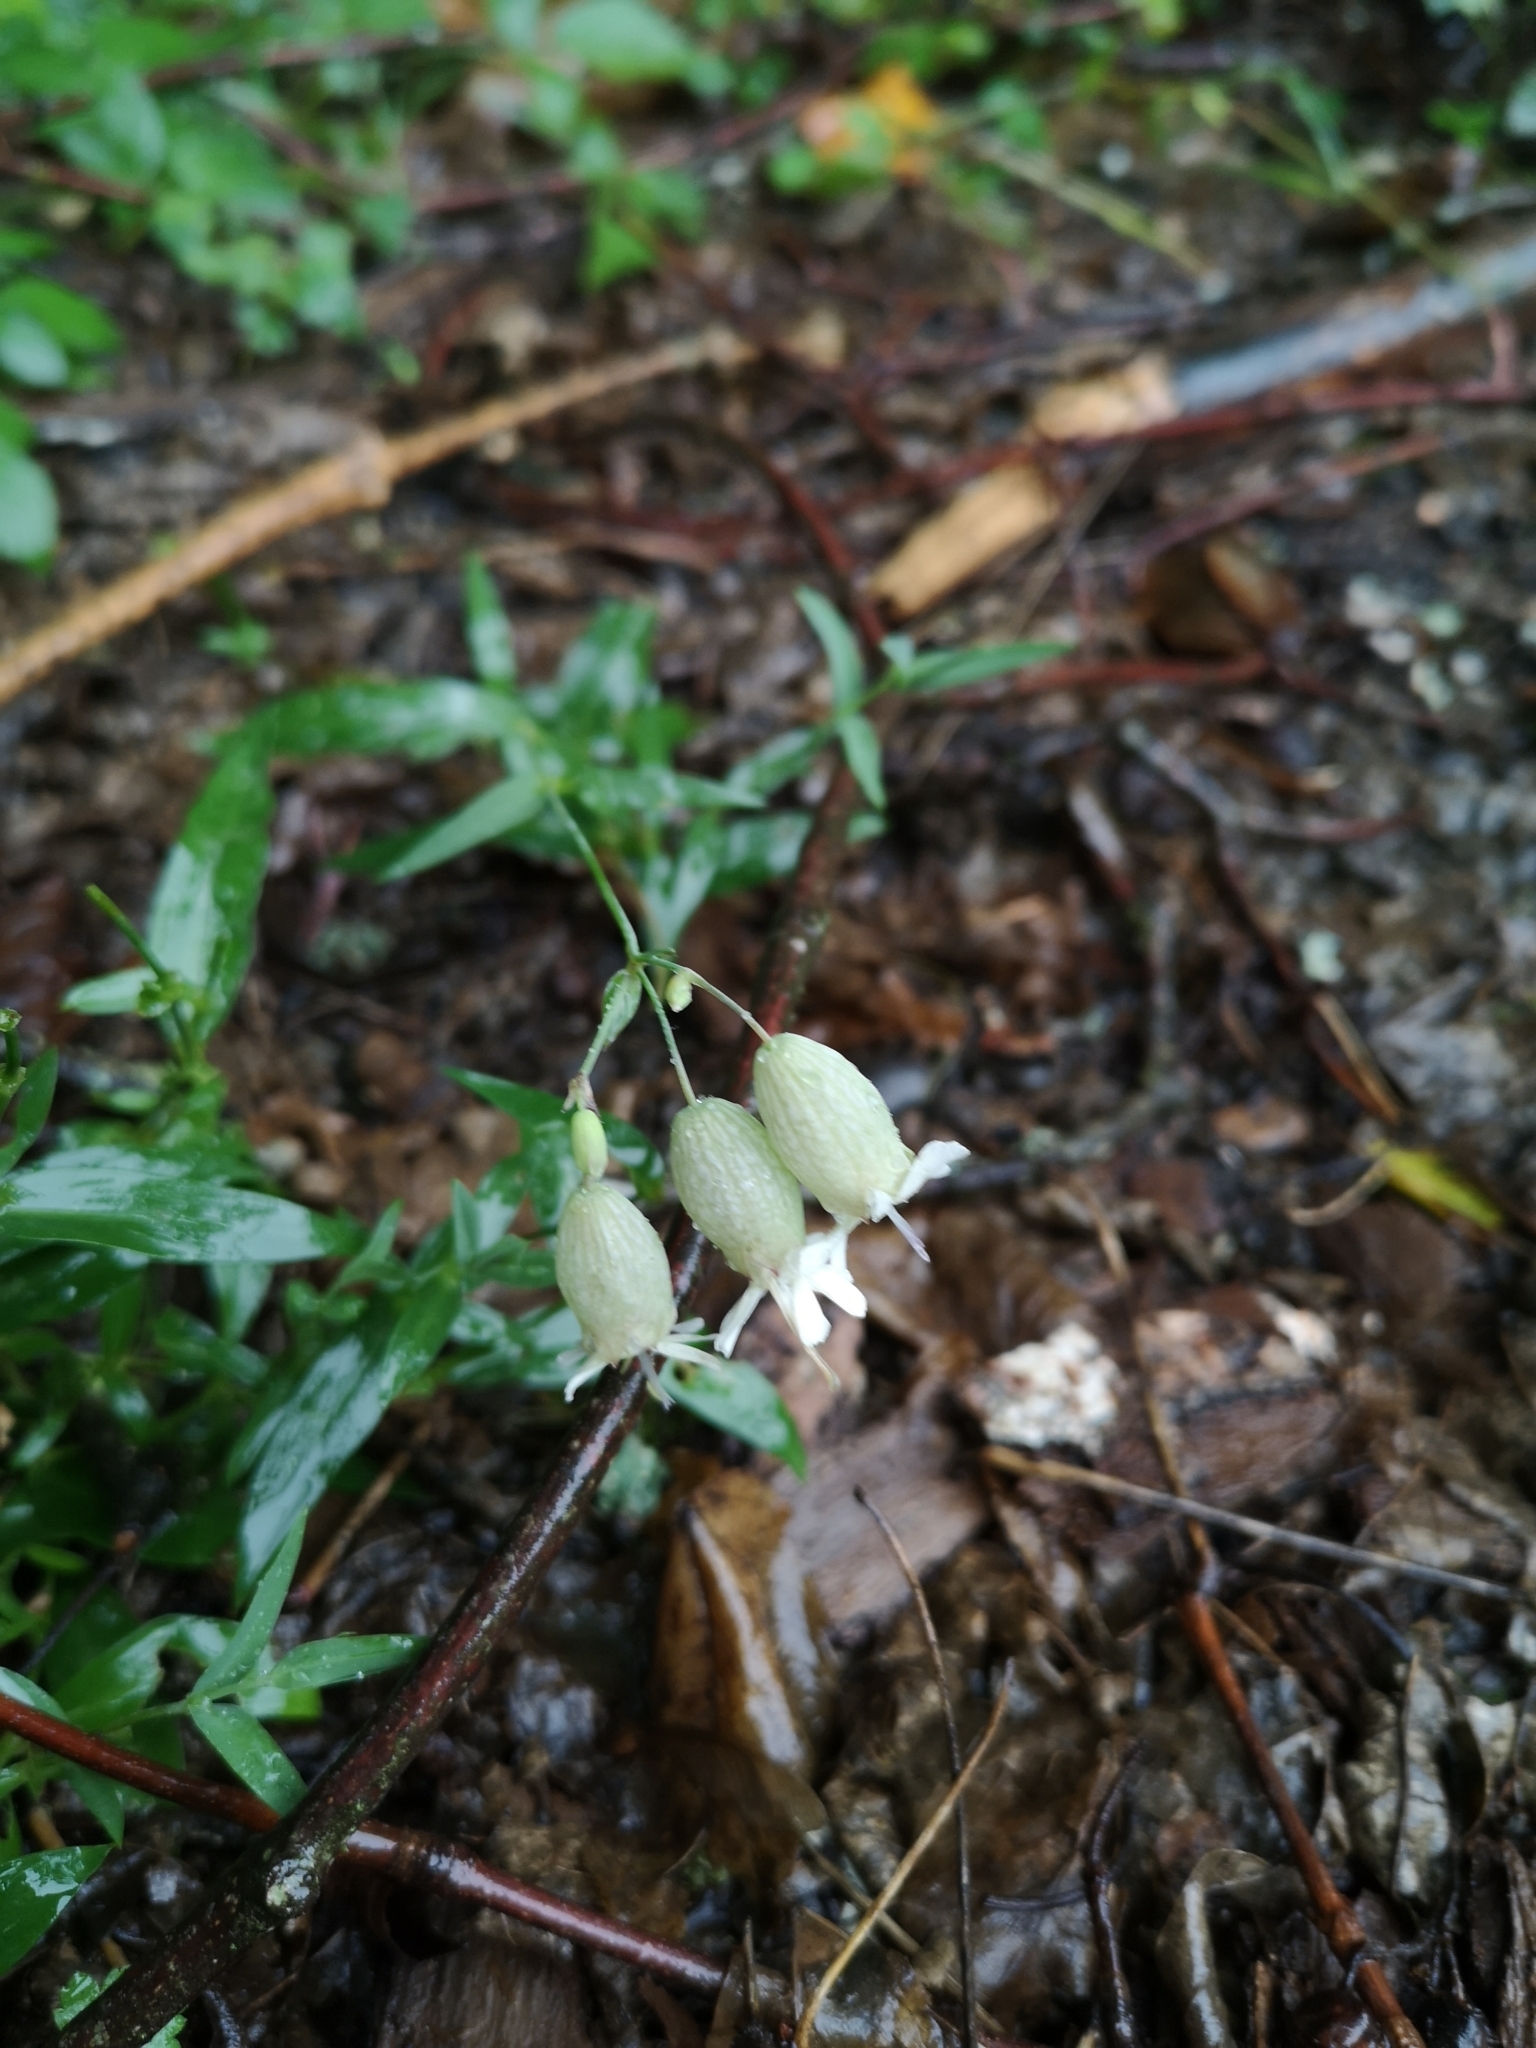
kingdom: Plantae
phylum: Tracheophyta
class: Magnoliopsida
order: Caryophyllales
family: Caryophyllaceae
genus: Silene
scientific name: Silene vulgaris
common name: Bladder campion
